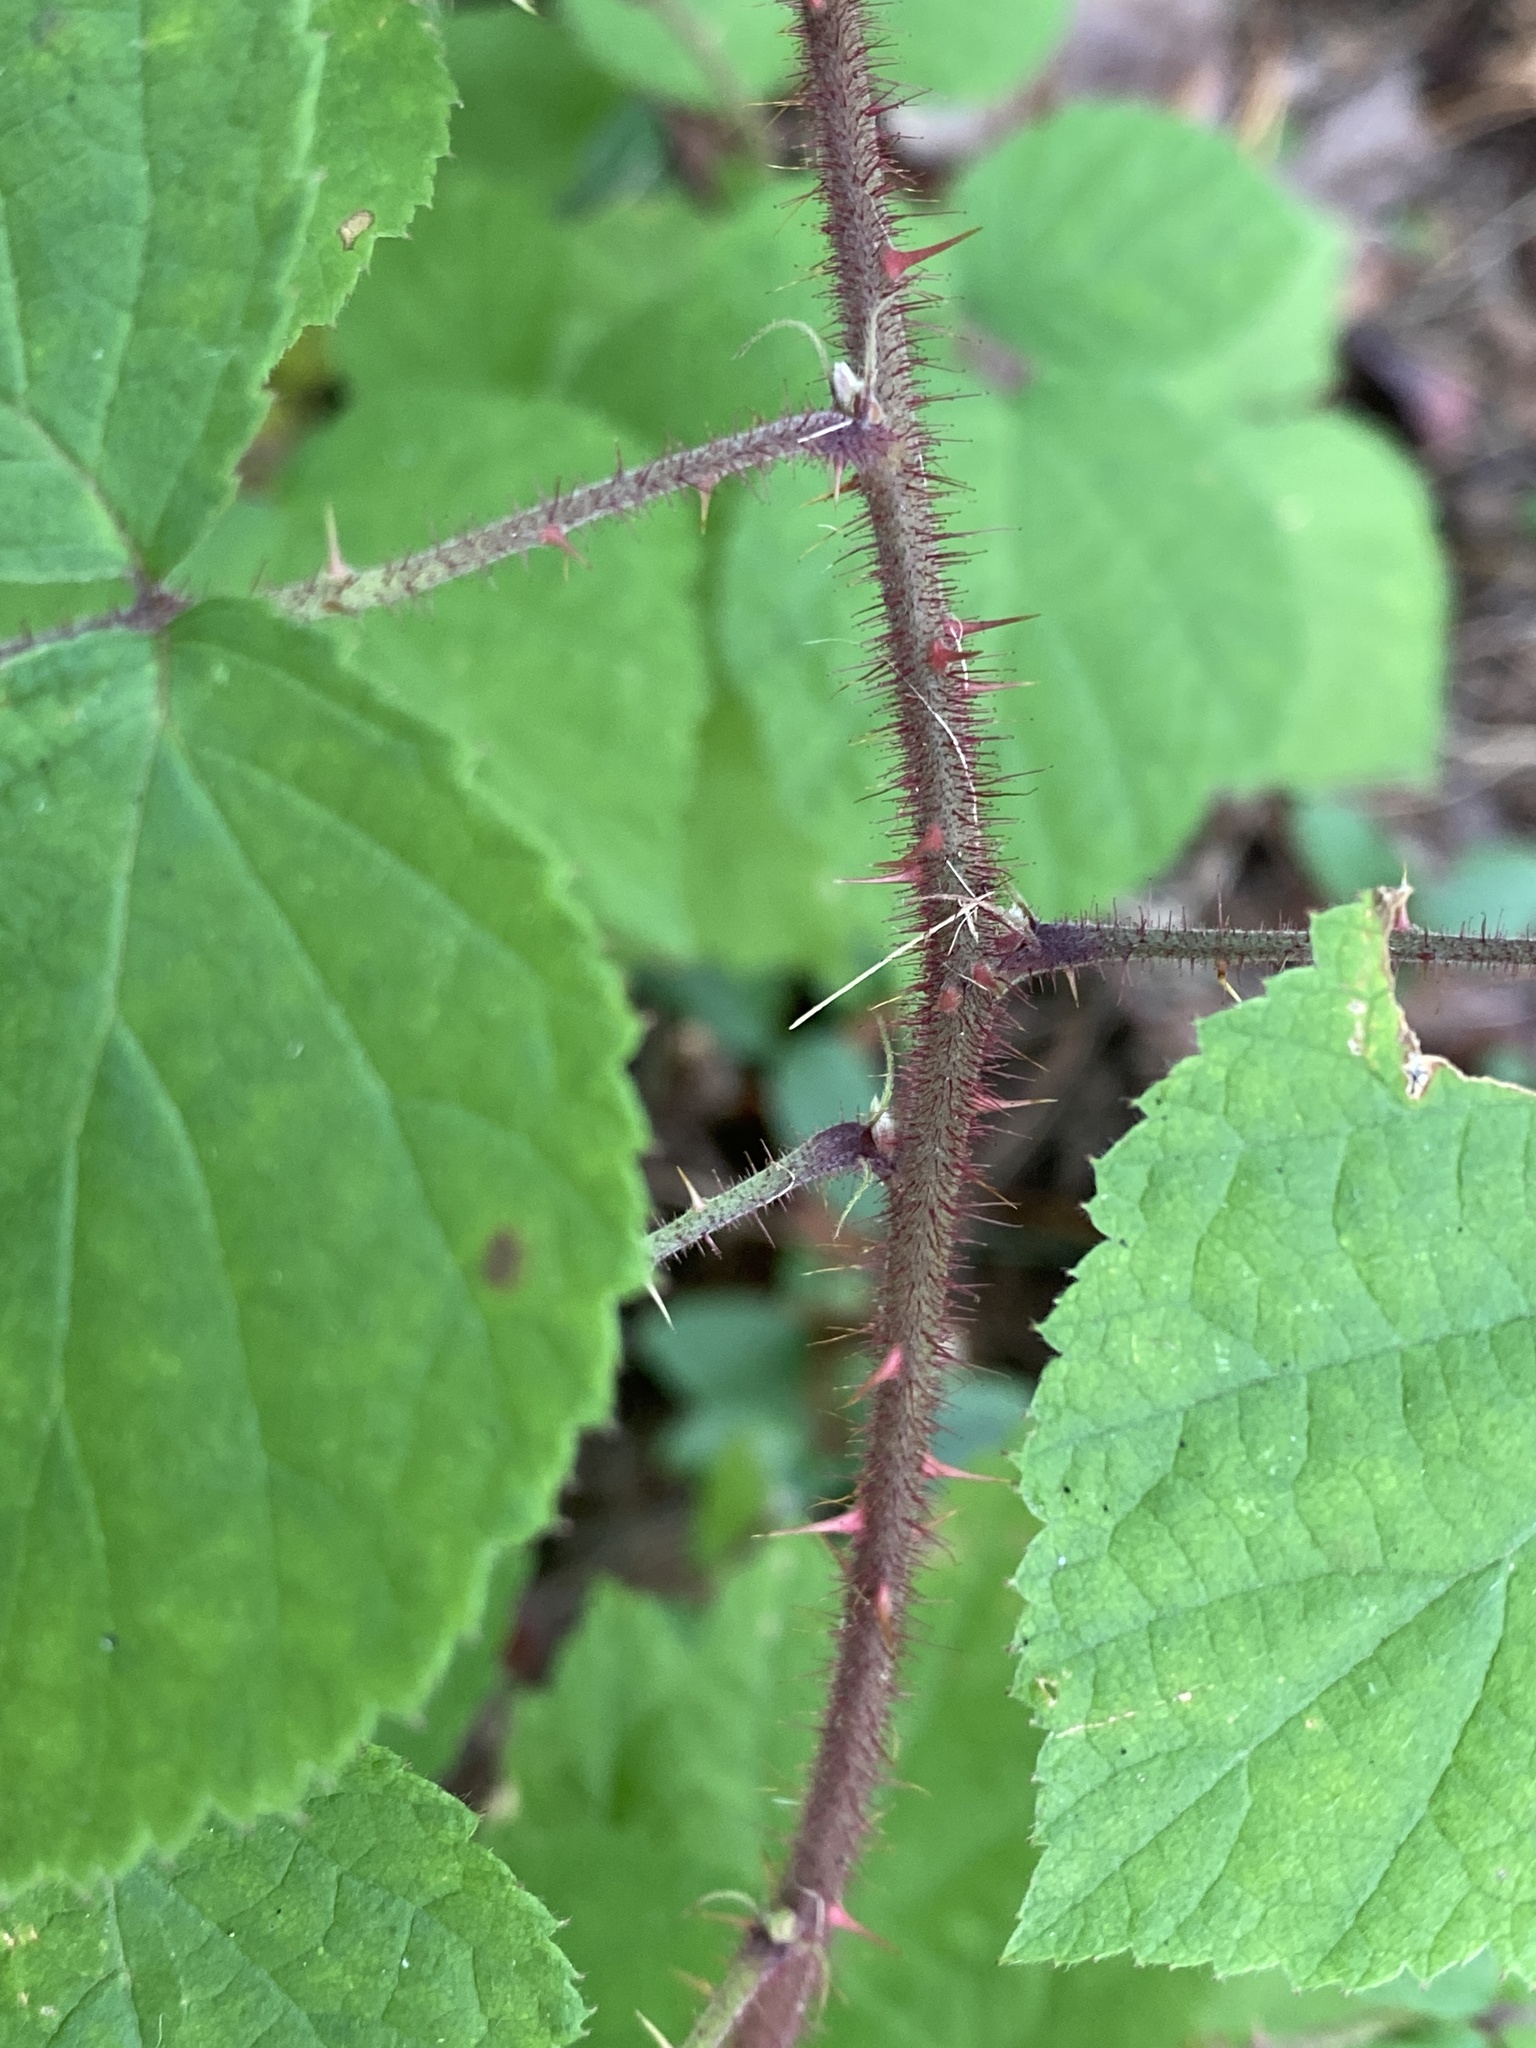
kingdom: Plantae
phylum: Tracheophyta
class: Magnoliopsida
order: Rosales
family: Rosaceae
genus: Rubus
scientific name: Rubus phoenicolasius
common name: Japanese wineberry
